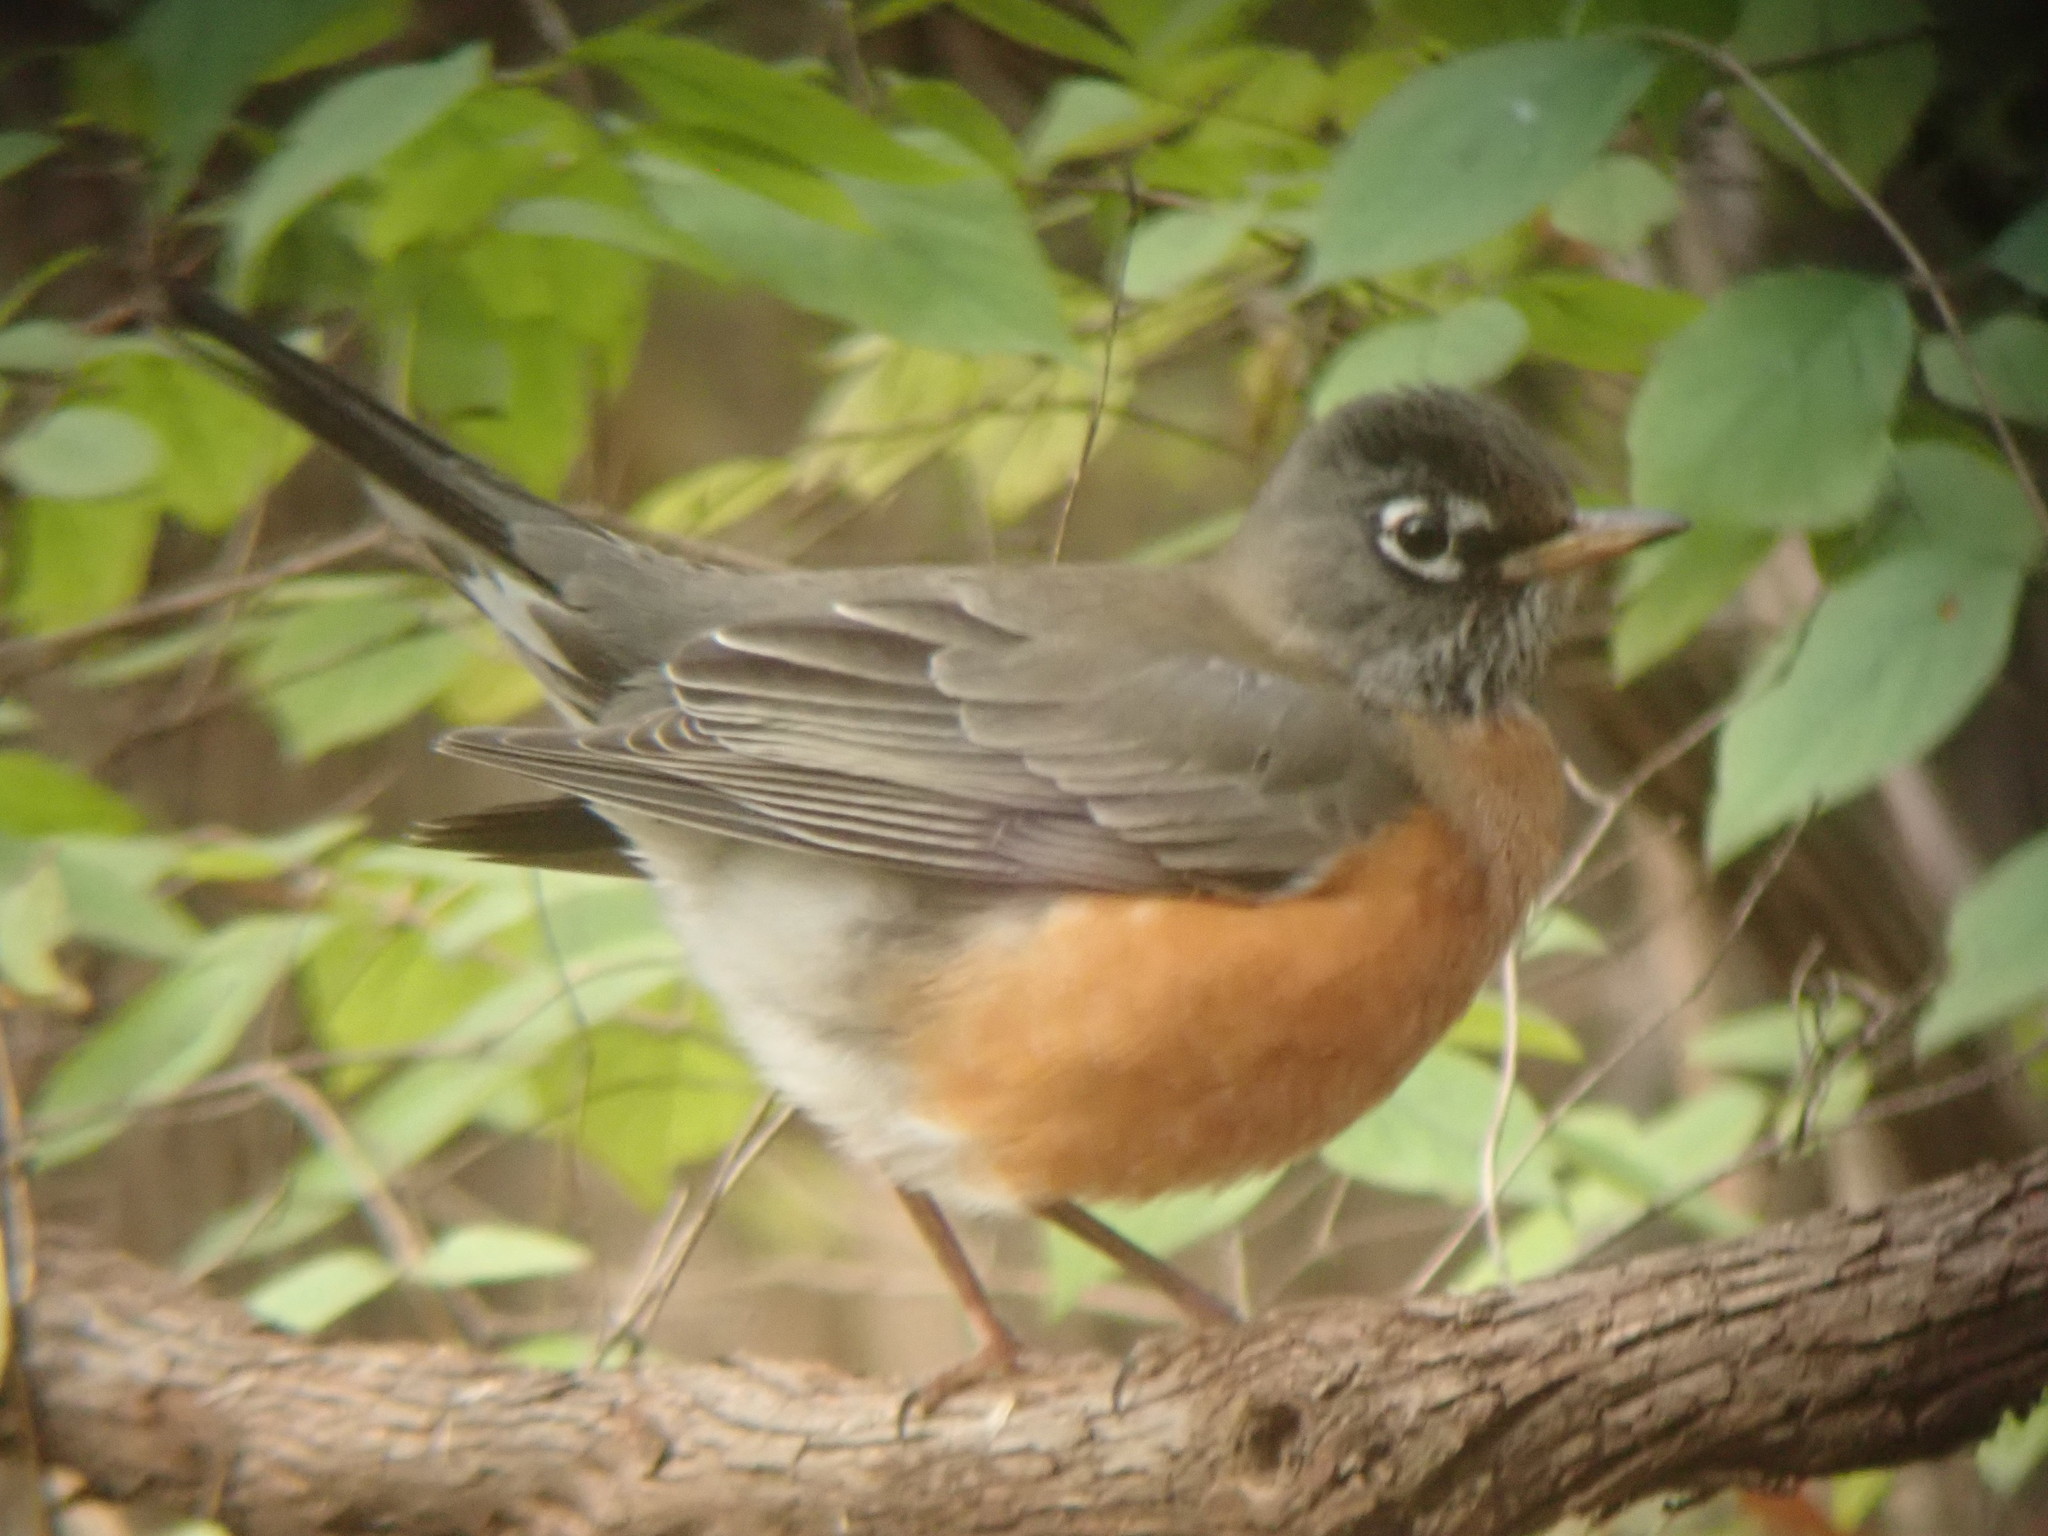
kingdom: Animalia
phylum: Chordata
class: Aves
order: Passeriformes
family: Turdidae
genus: Turdus
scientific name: Turdus migratorius
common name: American robin
